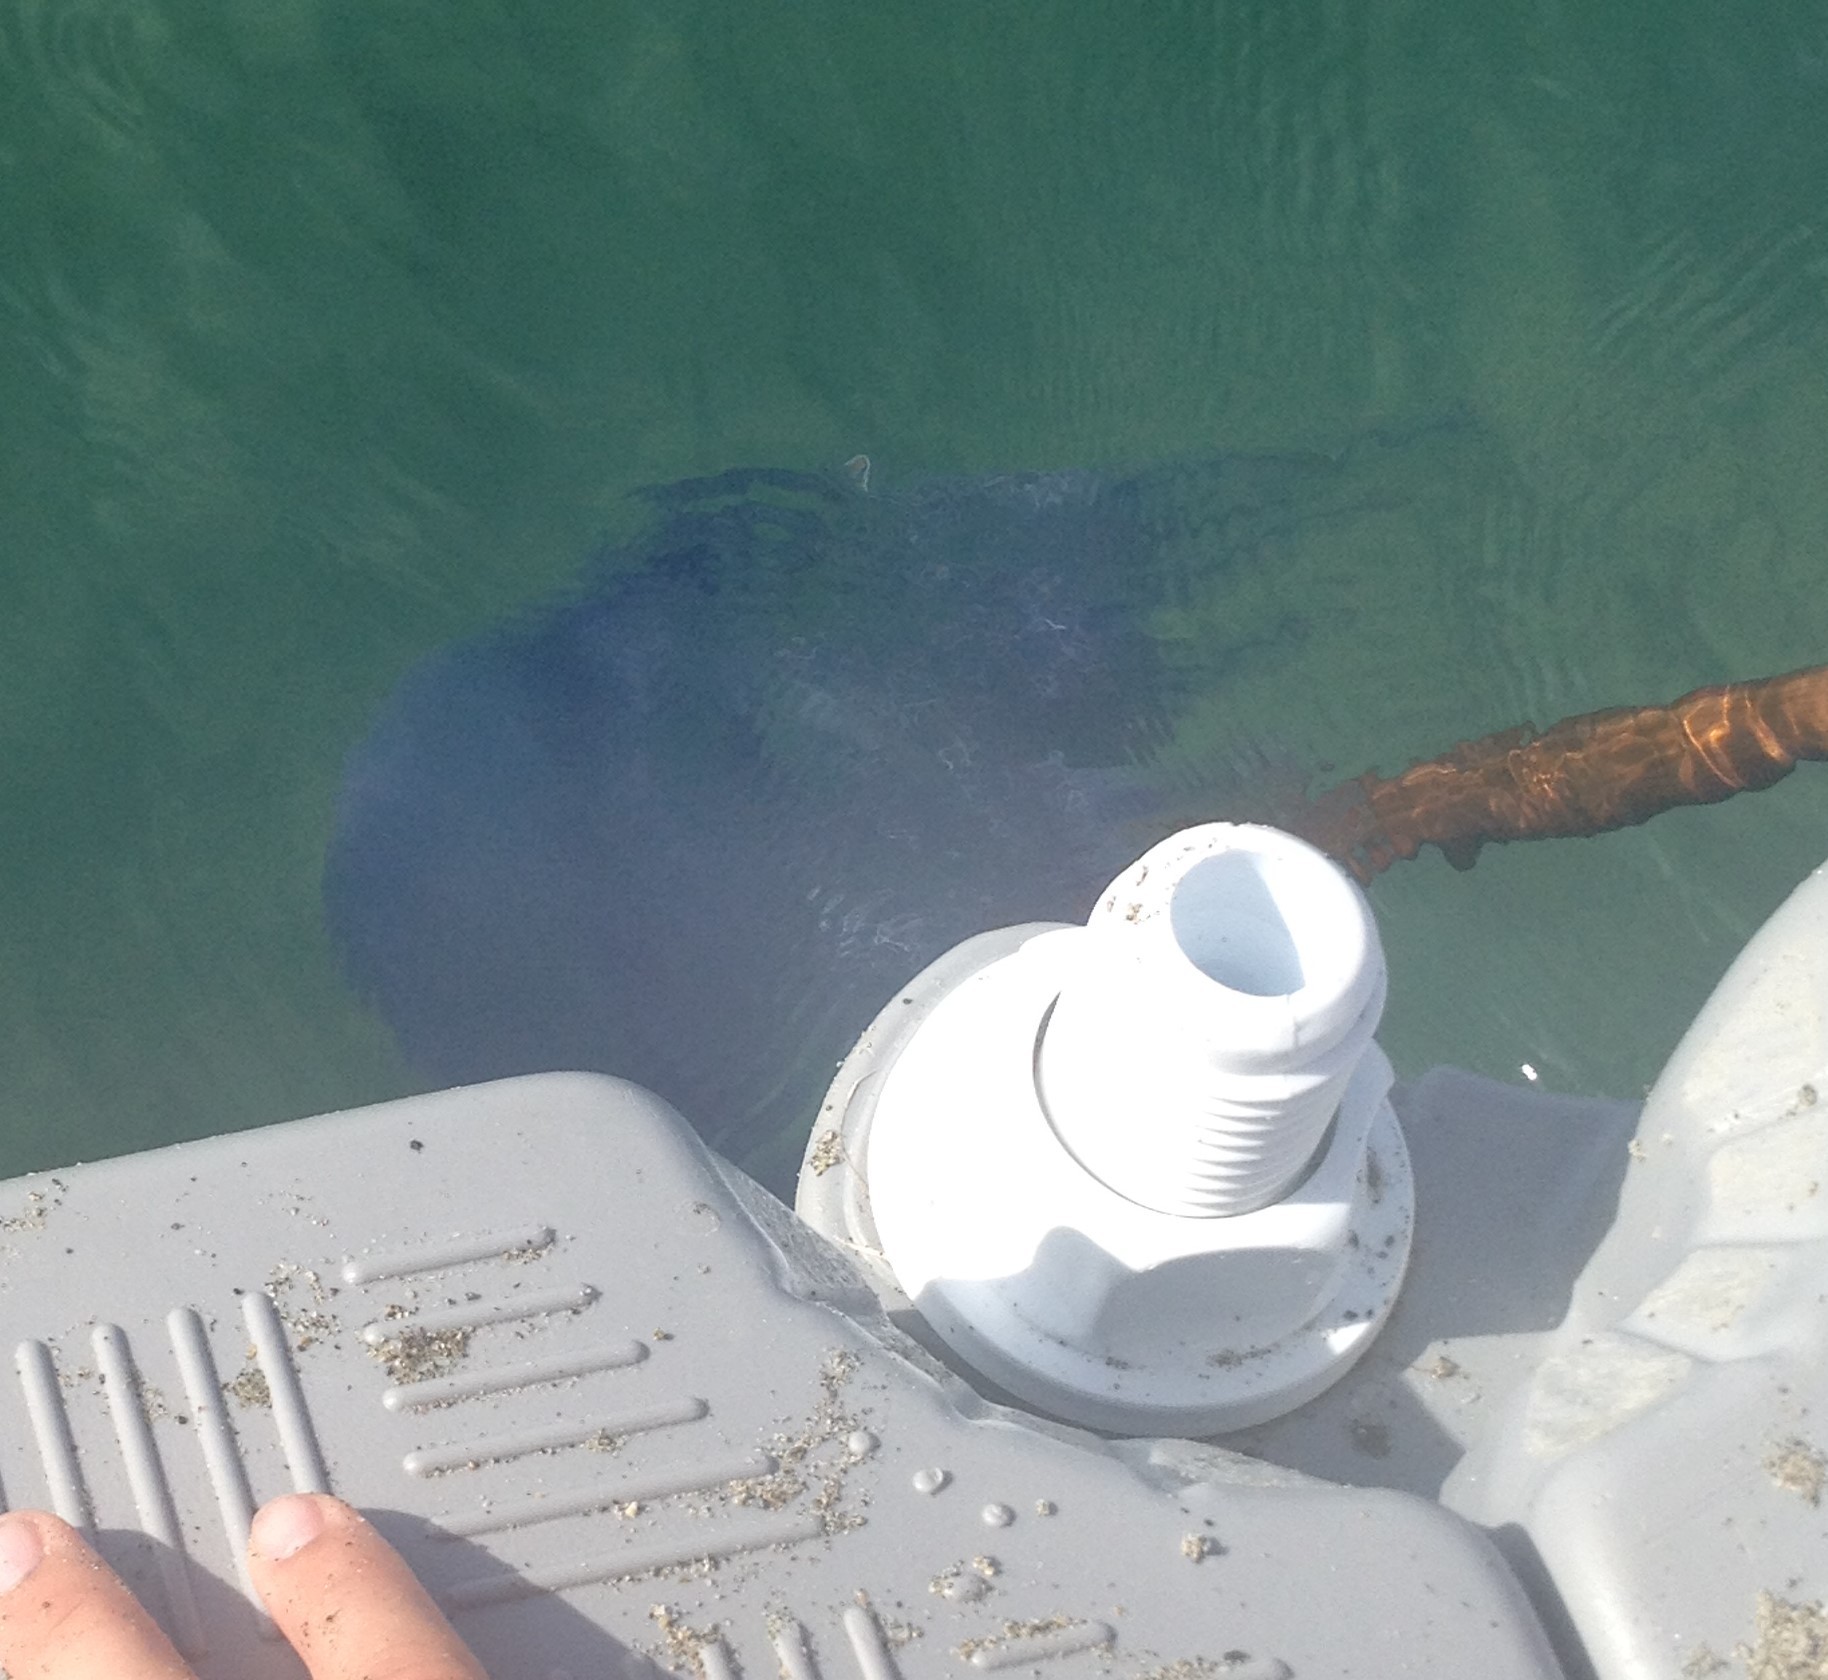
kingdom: Animalia
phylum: Cnidaria
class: Scyphozoa
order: Rhizostomeae
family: Rhizostomatidae
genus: Rhizostoma
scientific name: Rhizostoma pulmo
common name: Barrel jellyfish
